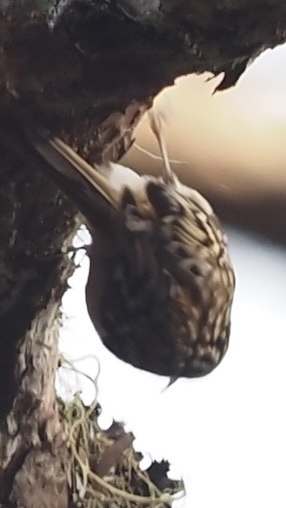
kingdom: Animalia
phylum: Chordata
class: Aves
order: Passeriformes
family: Certhiidae
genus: Certhia
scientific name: Certhia familiaris
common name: Eurasian treecreeper
